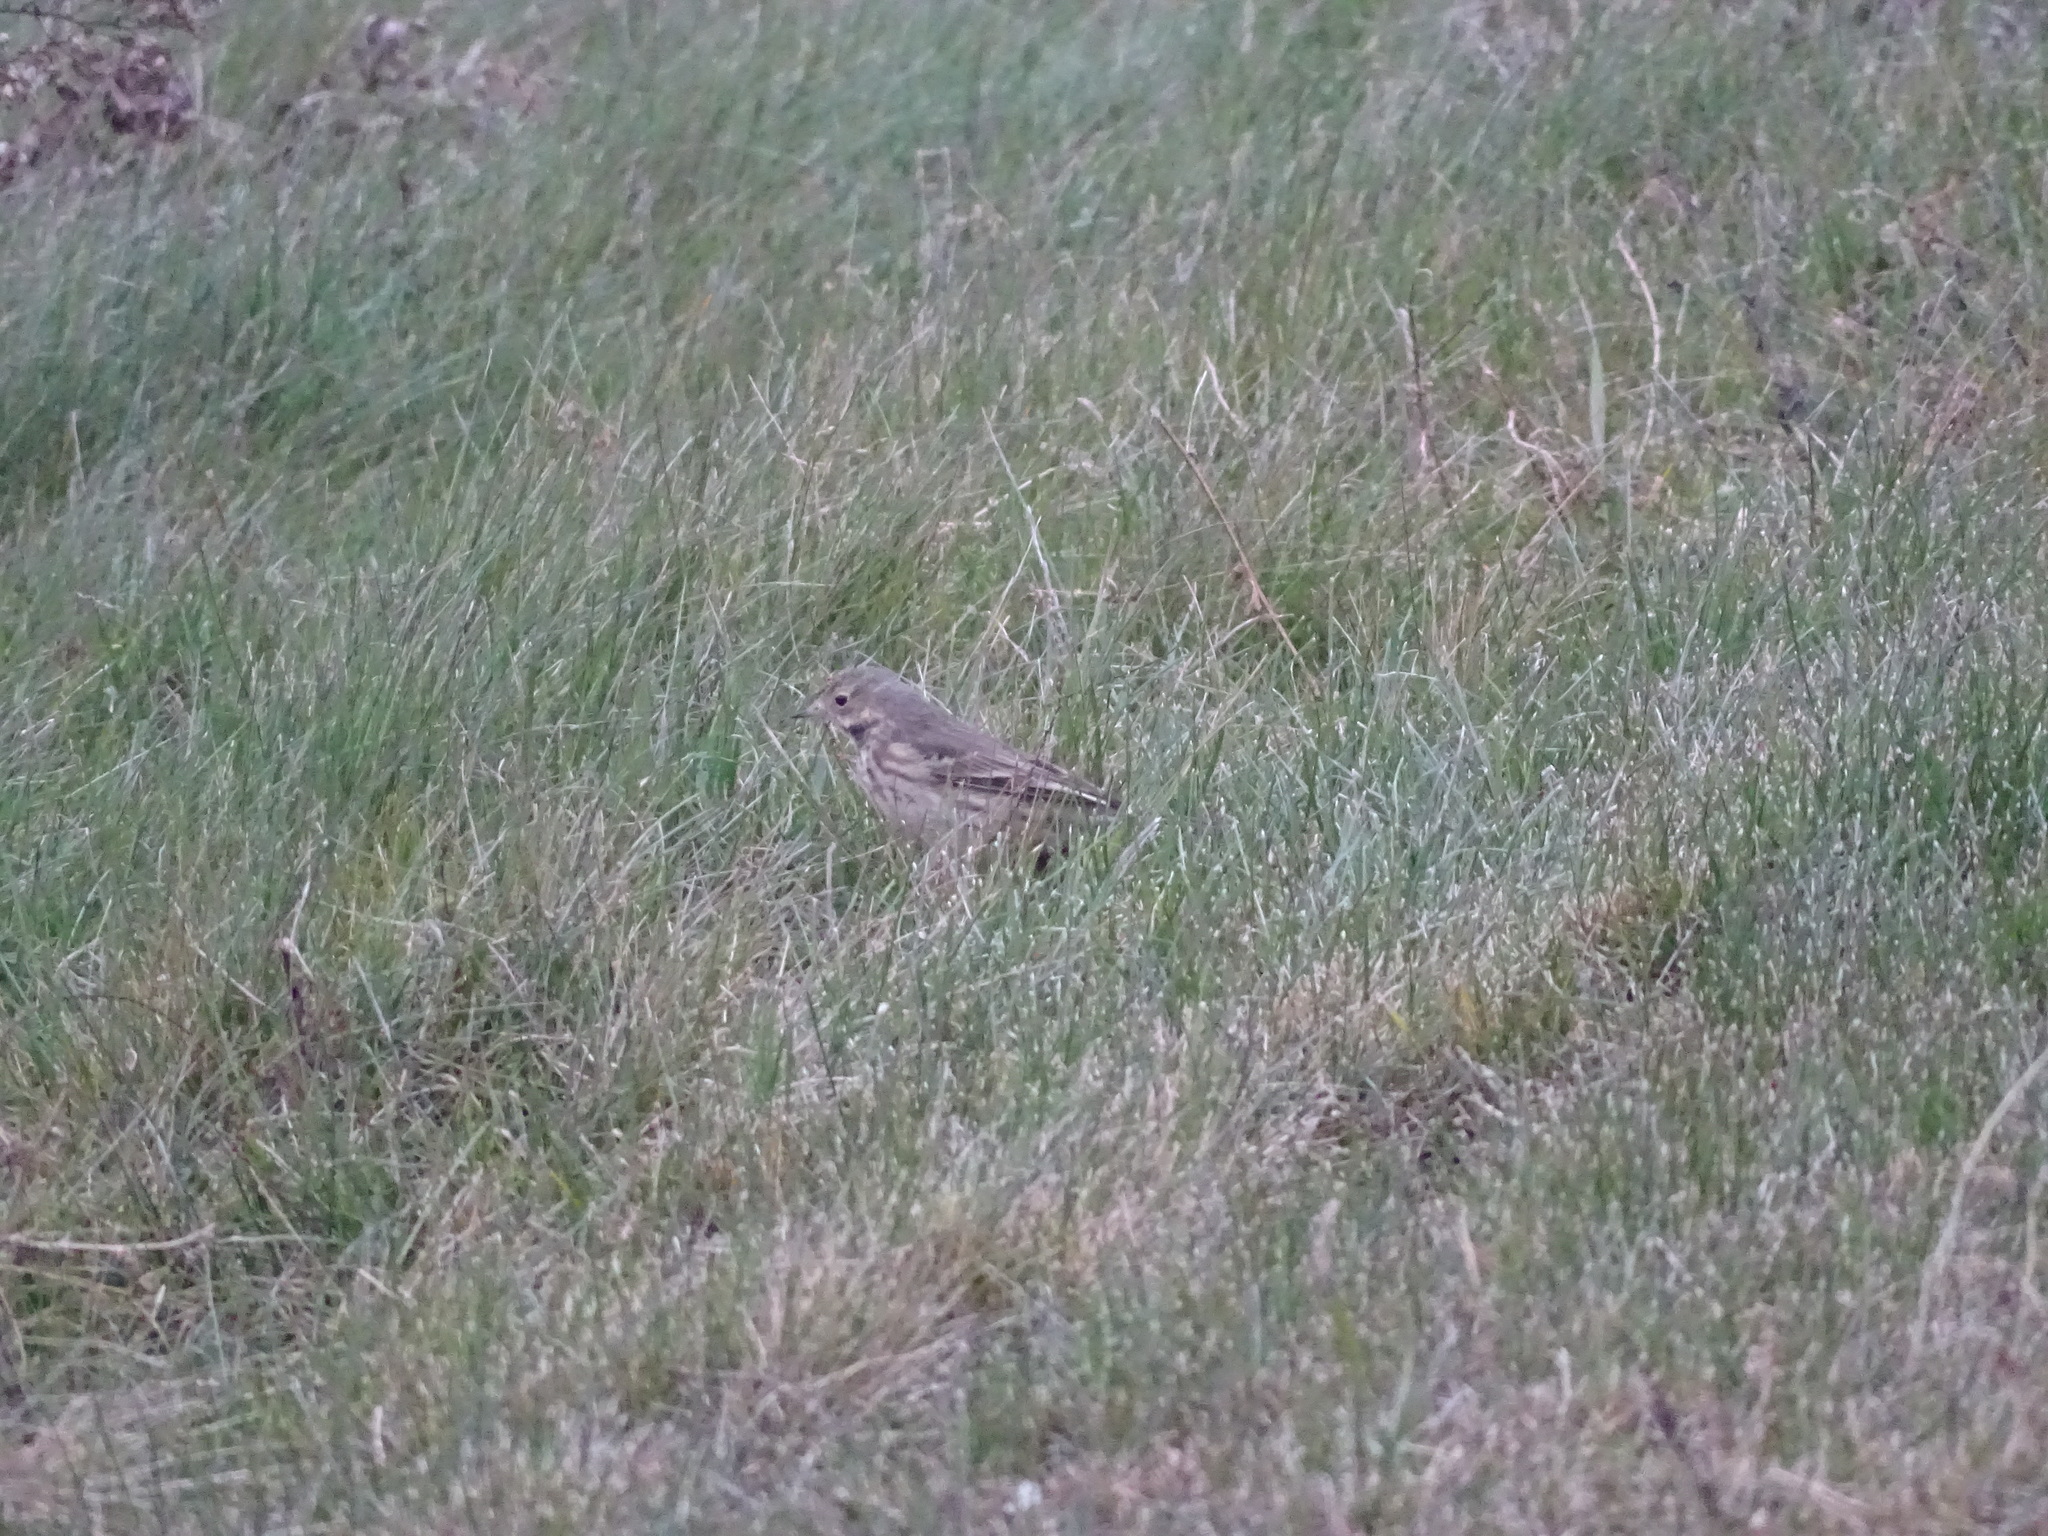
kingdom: Animalia
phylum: Chordata
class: Aves
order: Passeriformes
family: Motacillidae
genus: Anthus
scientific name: Anthus rubescens
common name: Buff-bellied pipit
